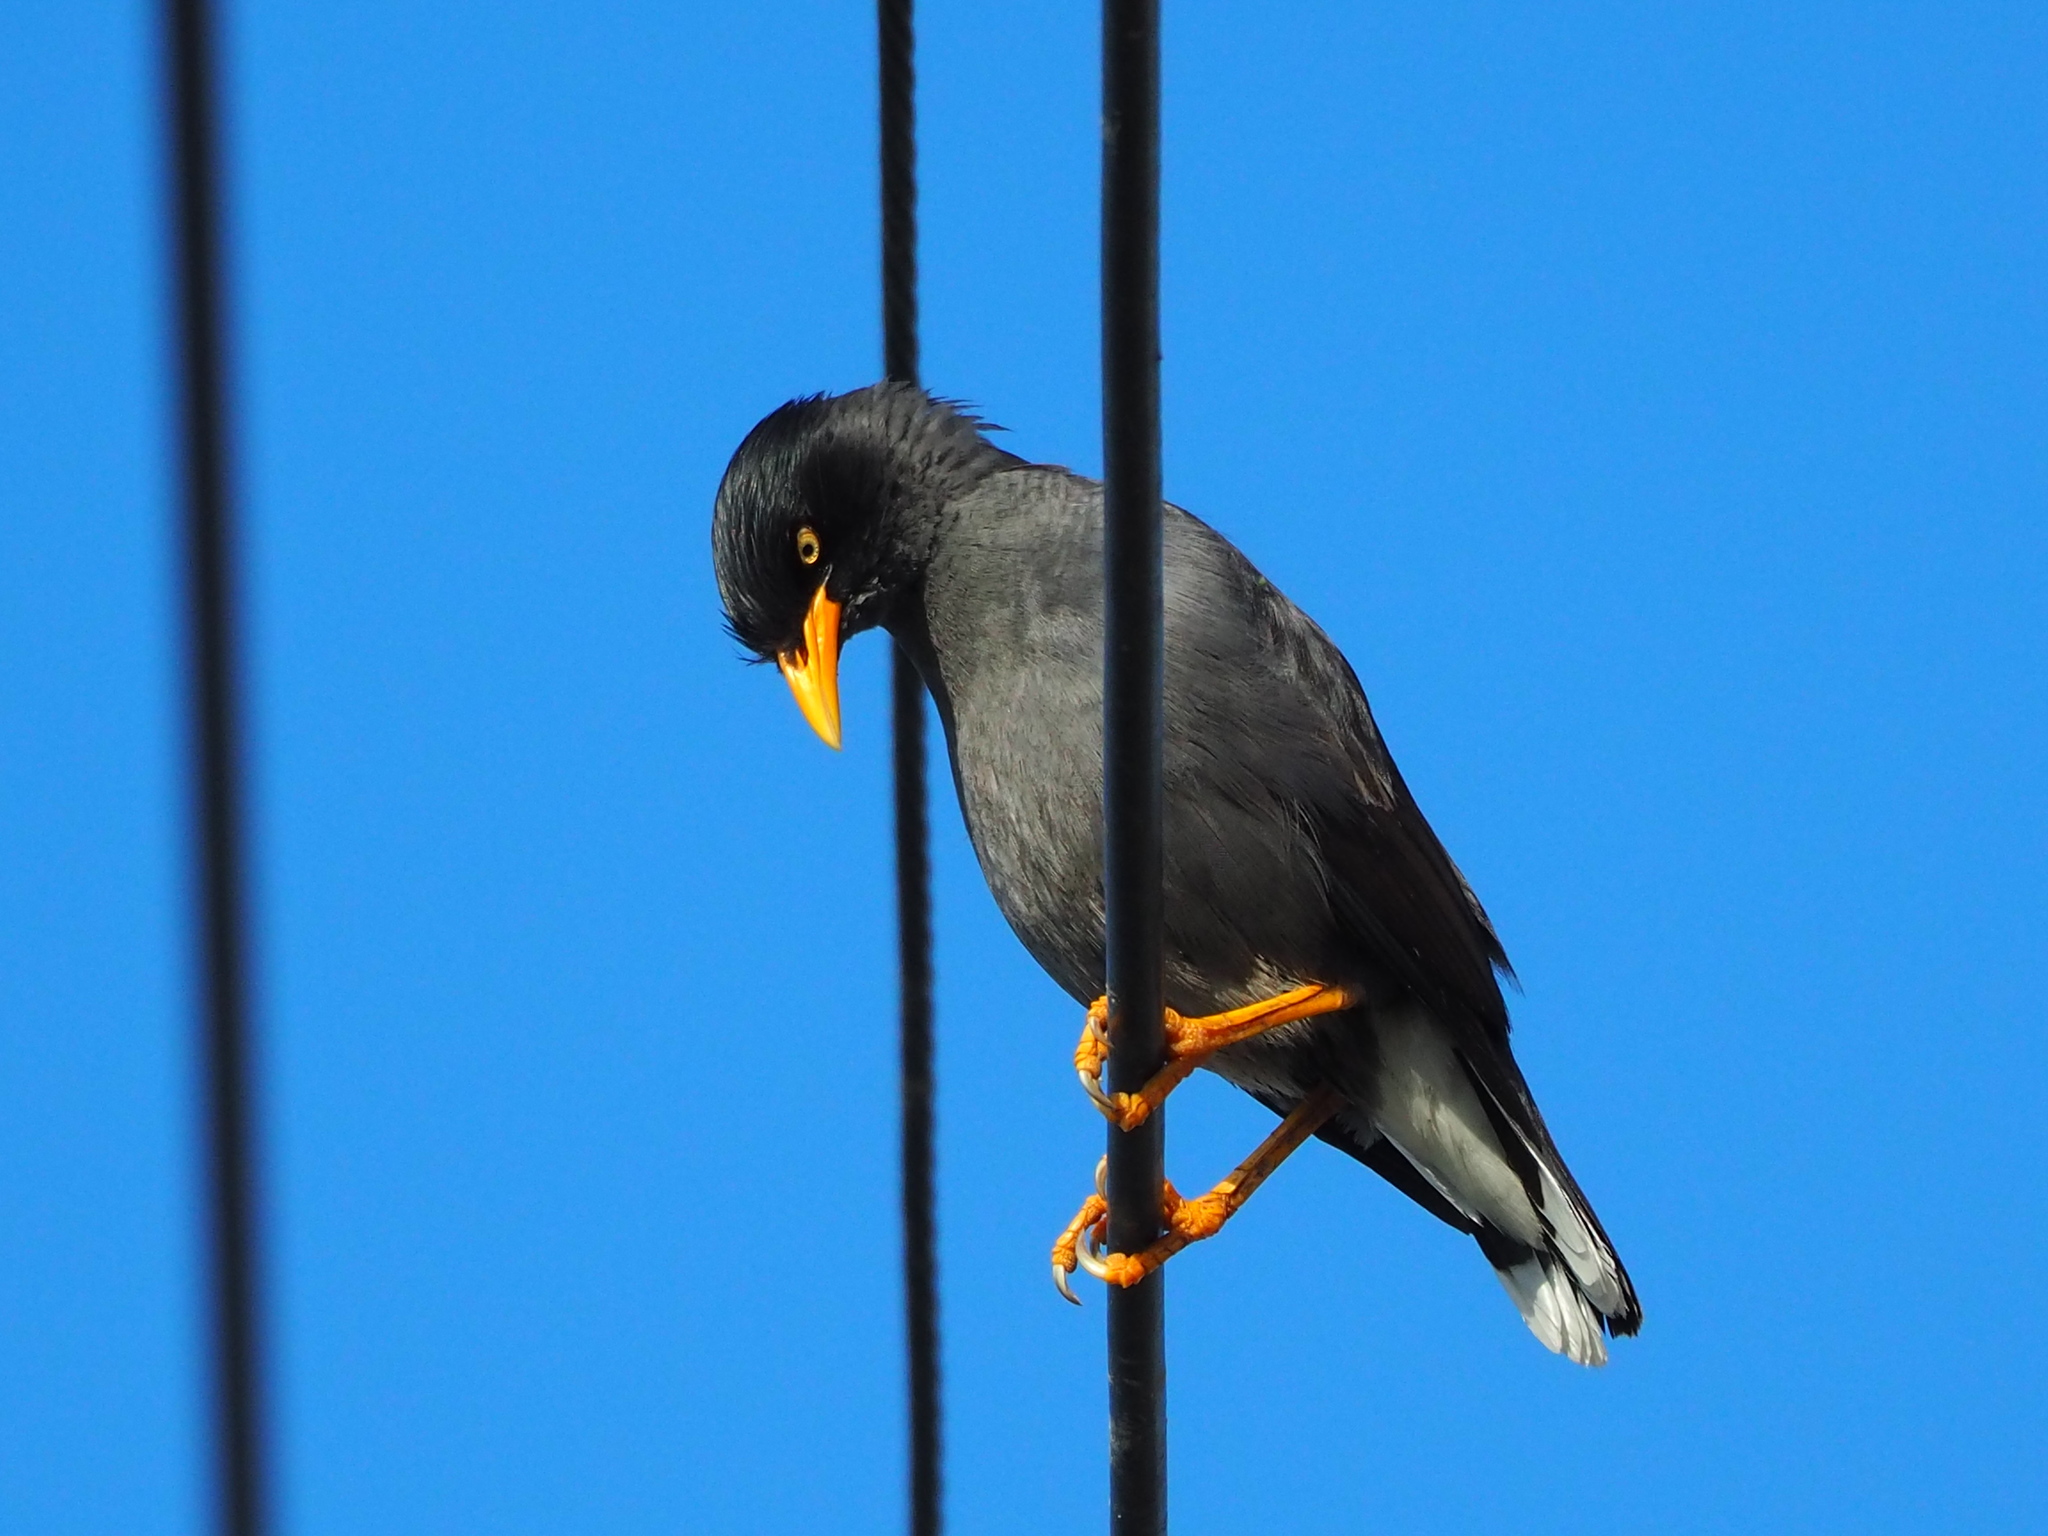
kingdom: Animalia
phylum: Chordata
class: Aves
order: Passeriformes
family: Sturnidae
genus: Acridotheres
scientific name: Acridotheres javanicus
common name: Javan myna
